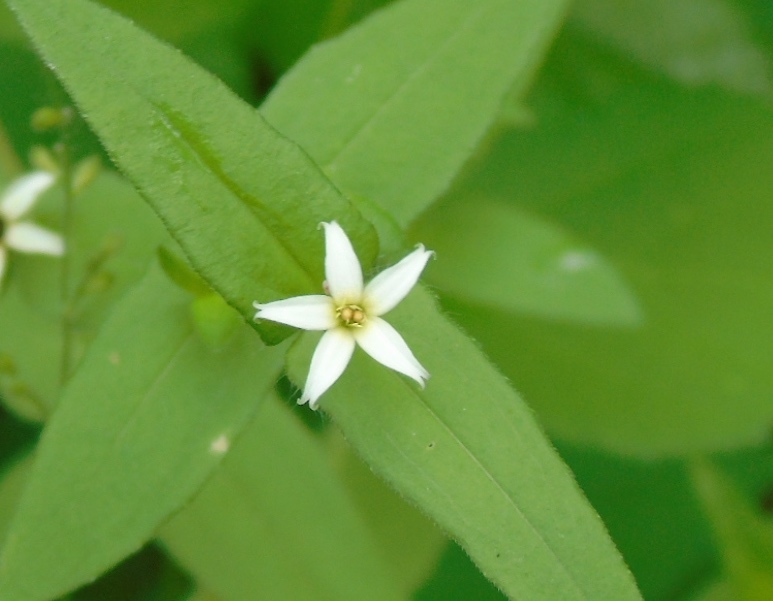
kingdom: Plantae
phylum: Tracheophyta
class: Magnoliopsida
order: Asterales
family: Asteraceae
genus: Zinnia
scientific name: Zinnia zinnioides
